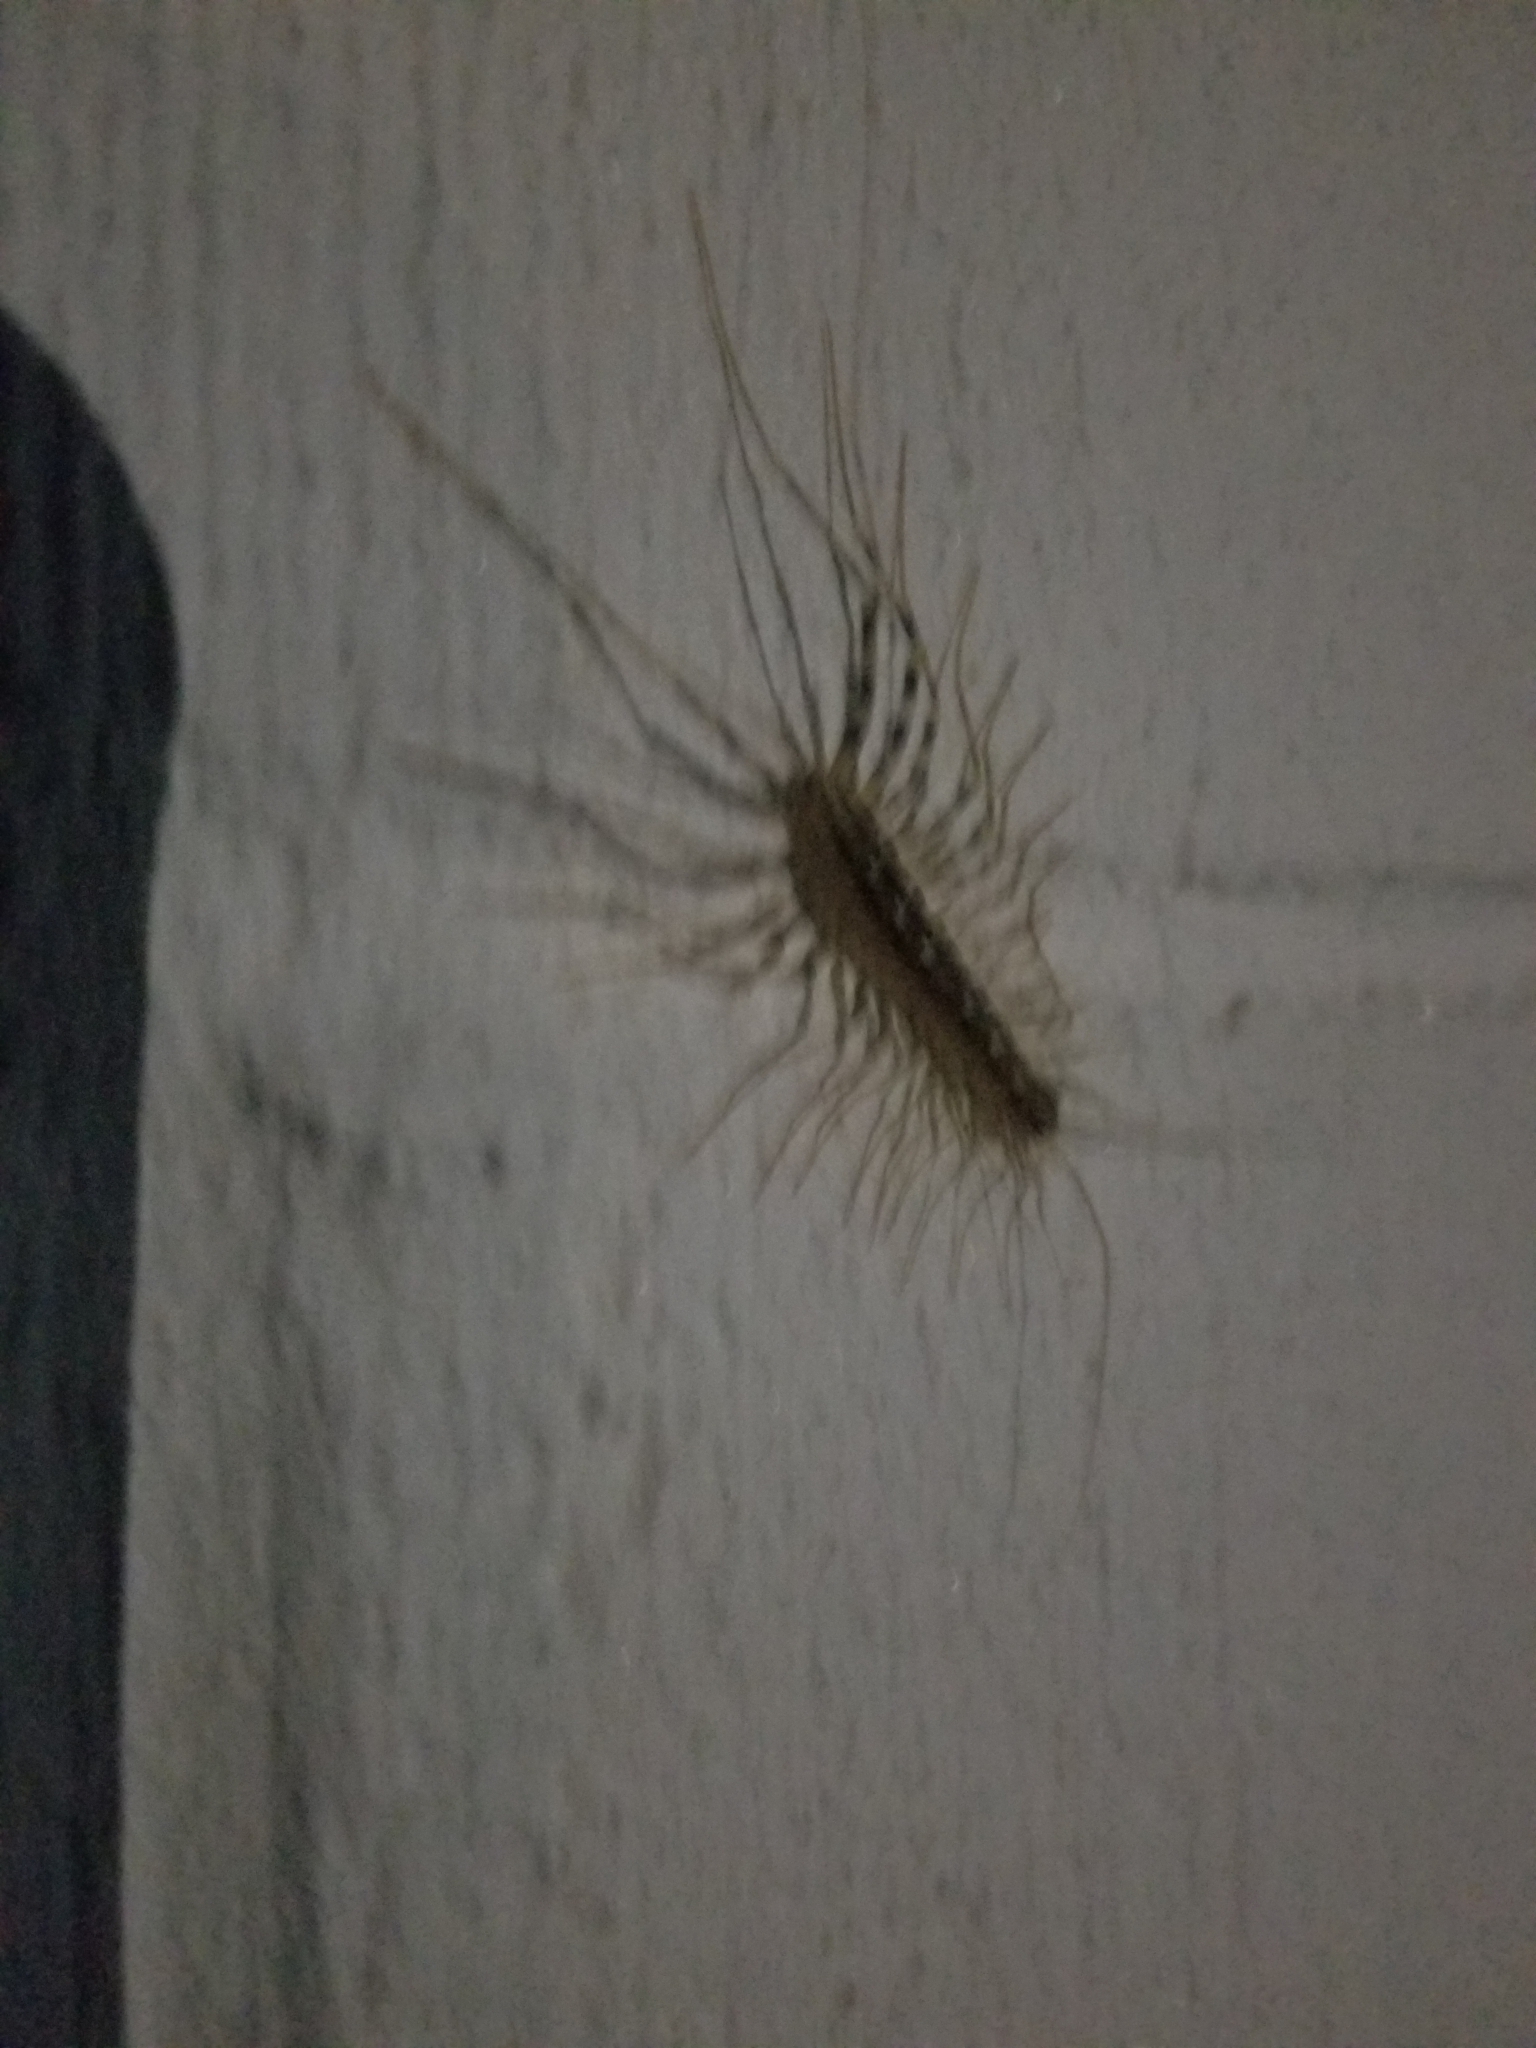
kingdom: Animalia
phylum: Arthropoda
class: Chilopoda
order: Scutigeromorpha
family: Scutigeridae
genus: Scutigera
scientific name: Scutigera coleoptrata
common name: House centipede
